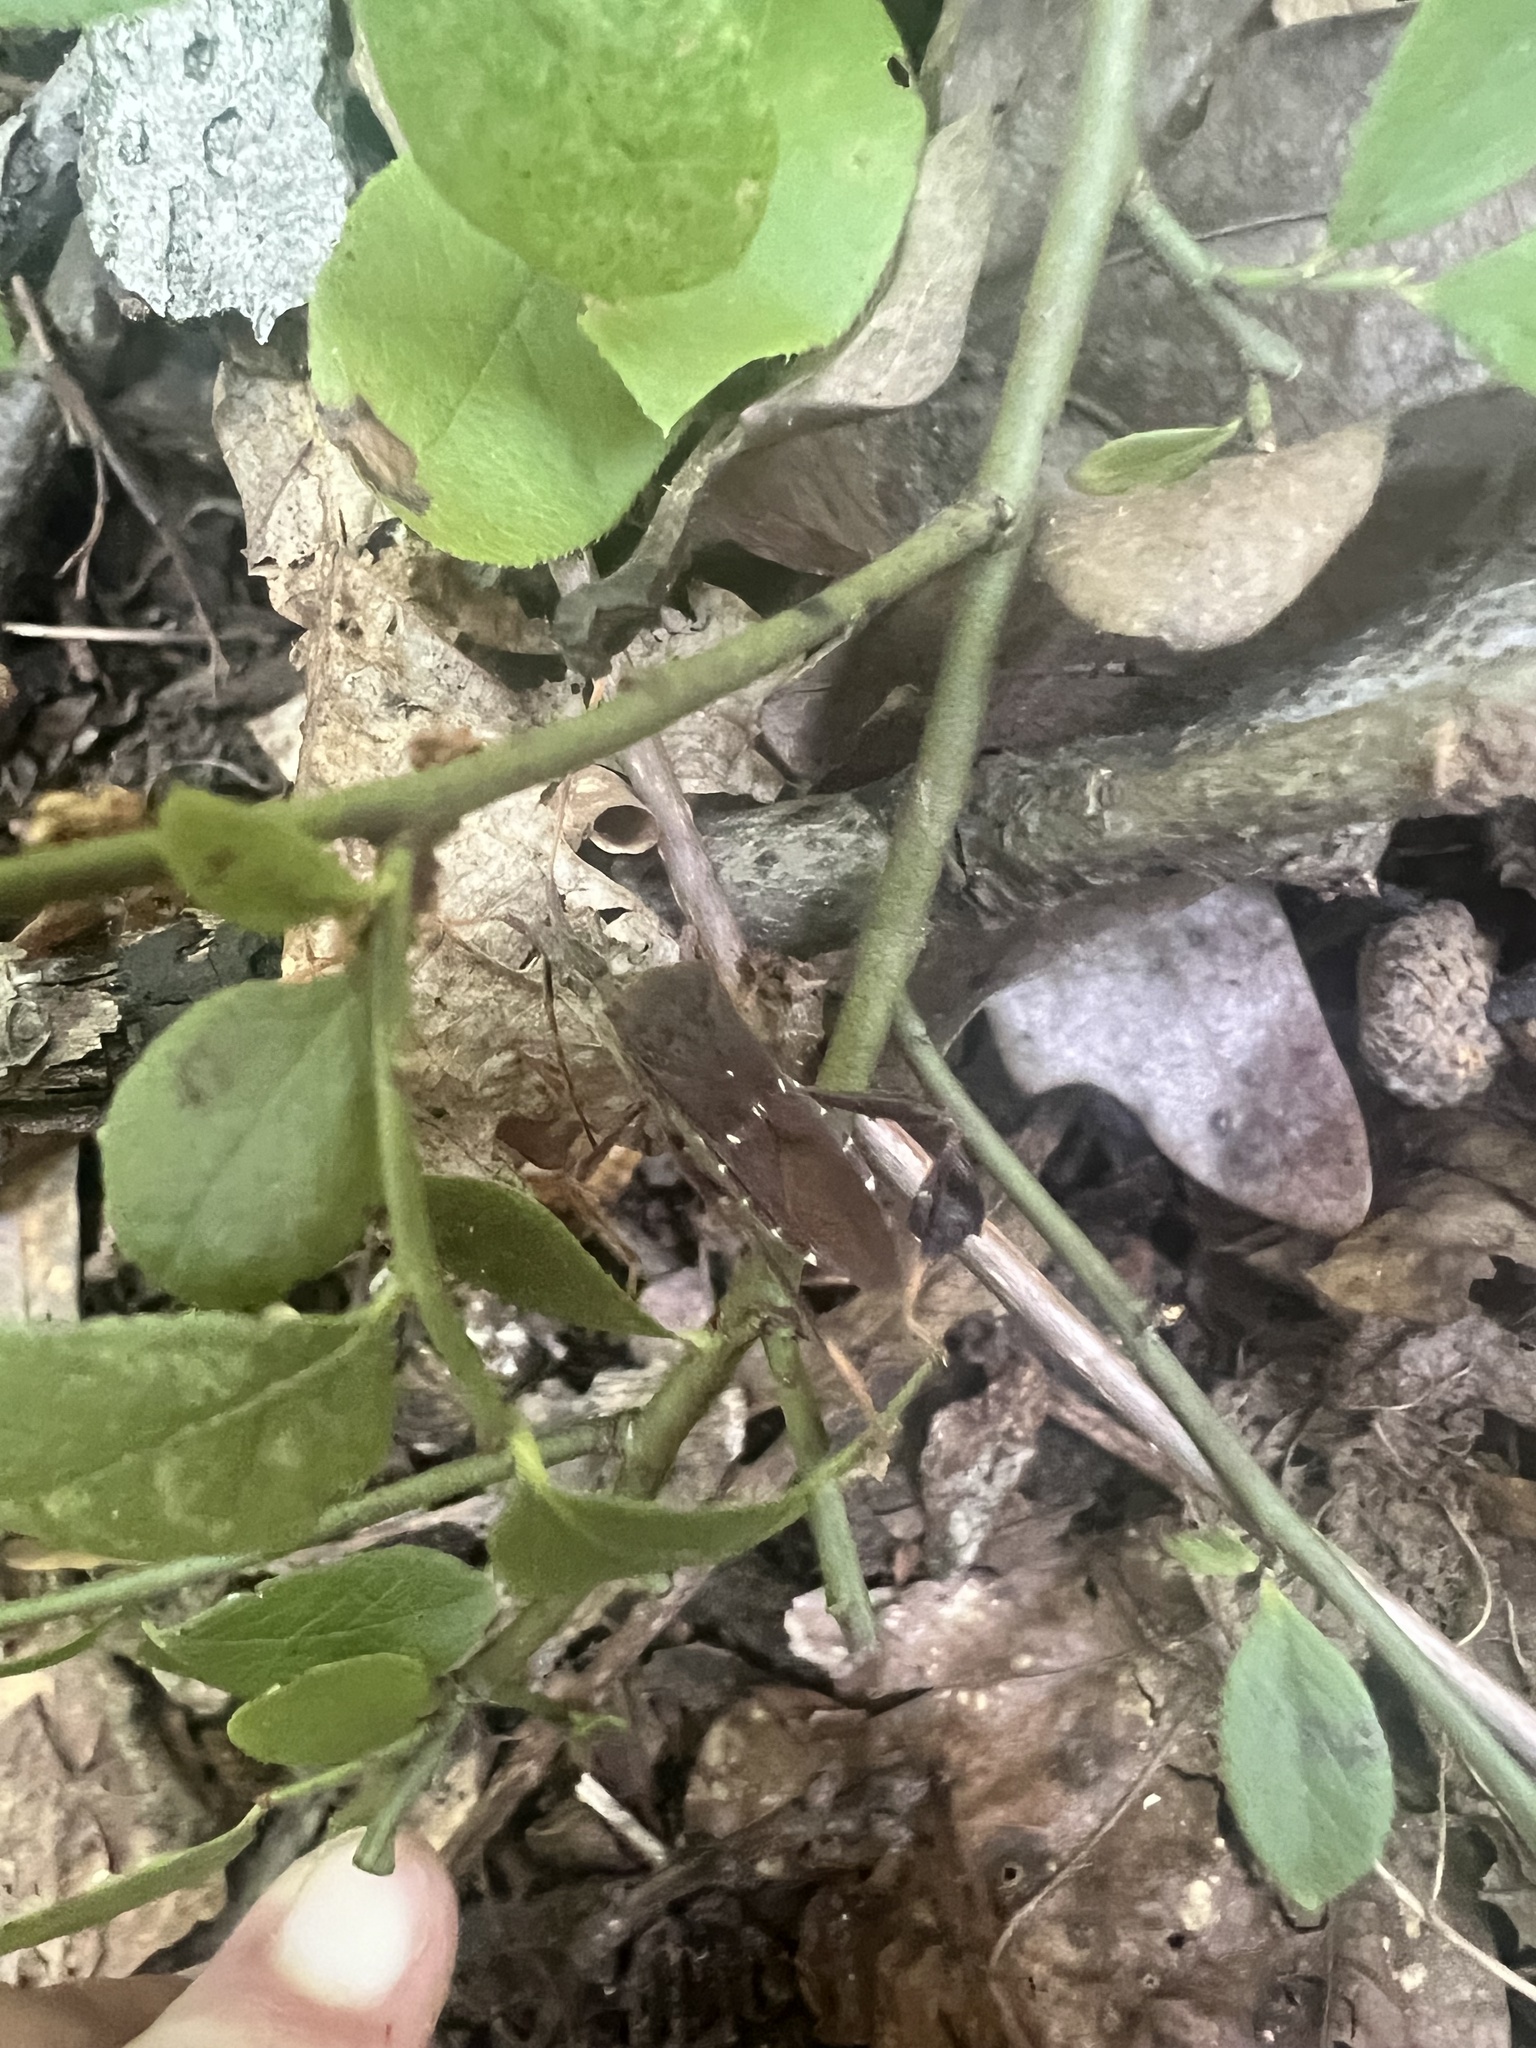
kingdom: Animalia
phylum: Arthropoda
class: Insecta
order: Hemiptera
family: Coreidae
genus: Leptoglossus
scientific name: Leptoglossus oppositus
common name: Northern leaf-footed bug
